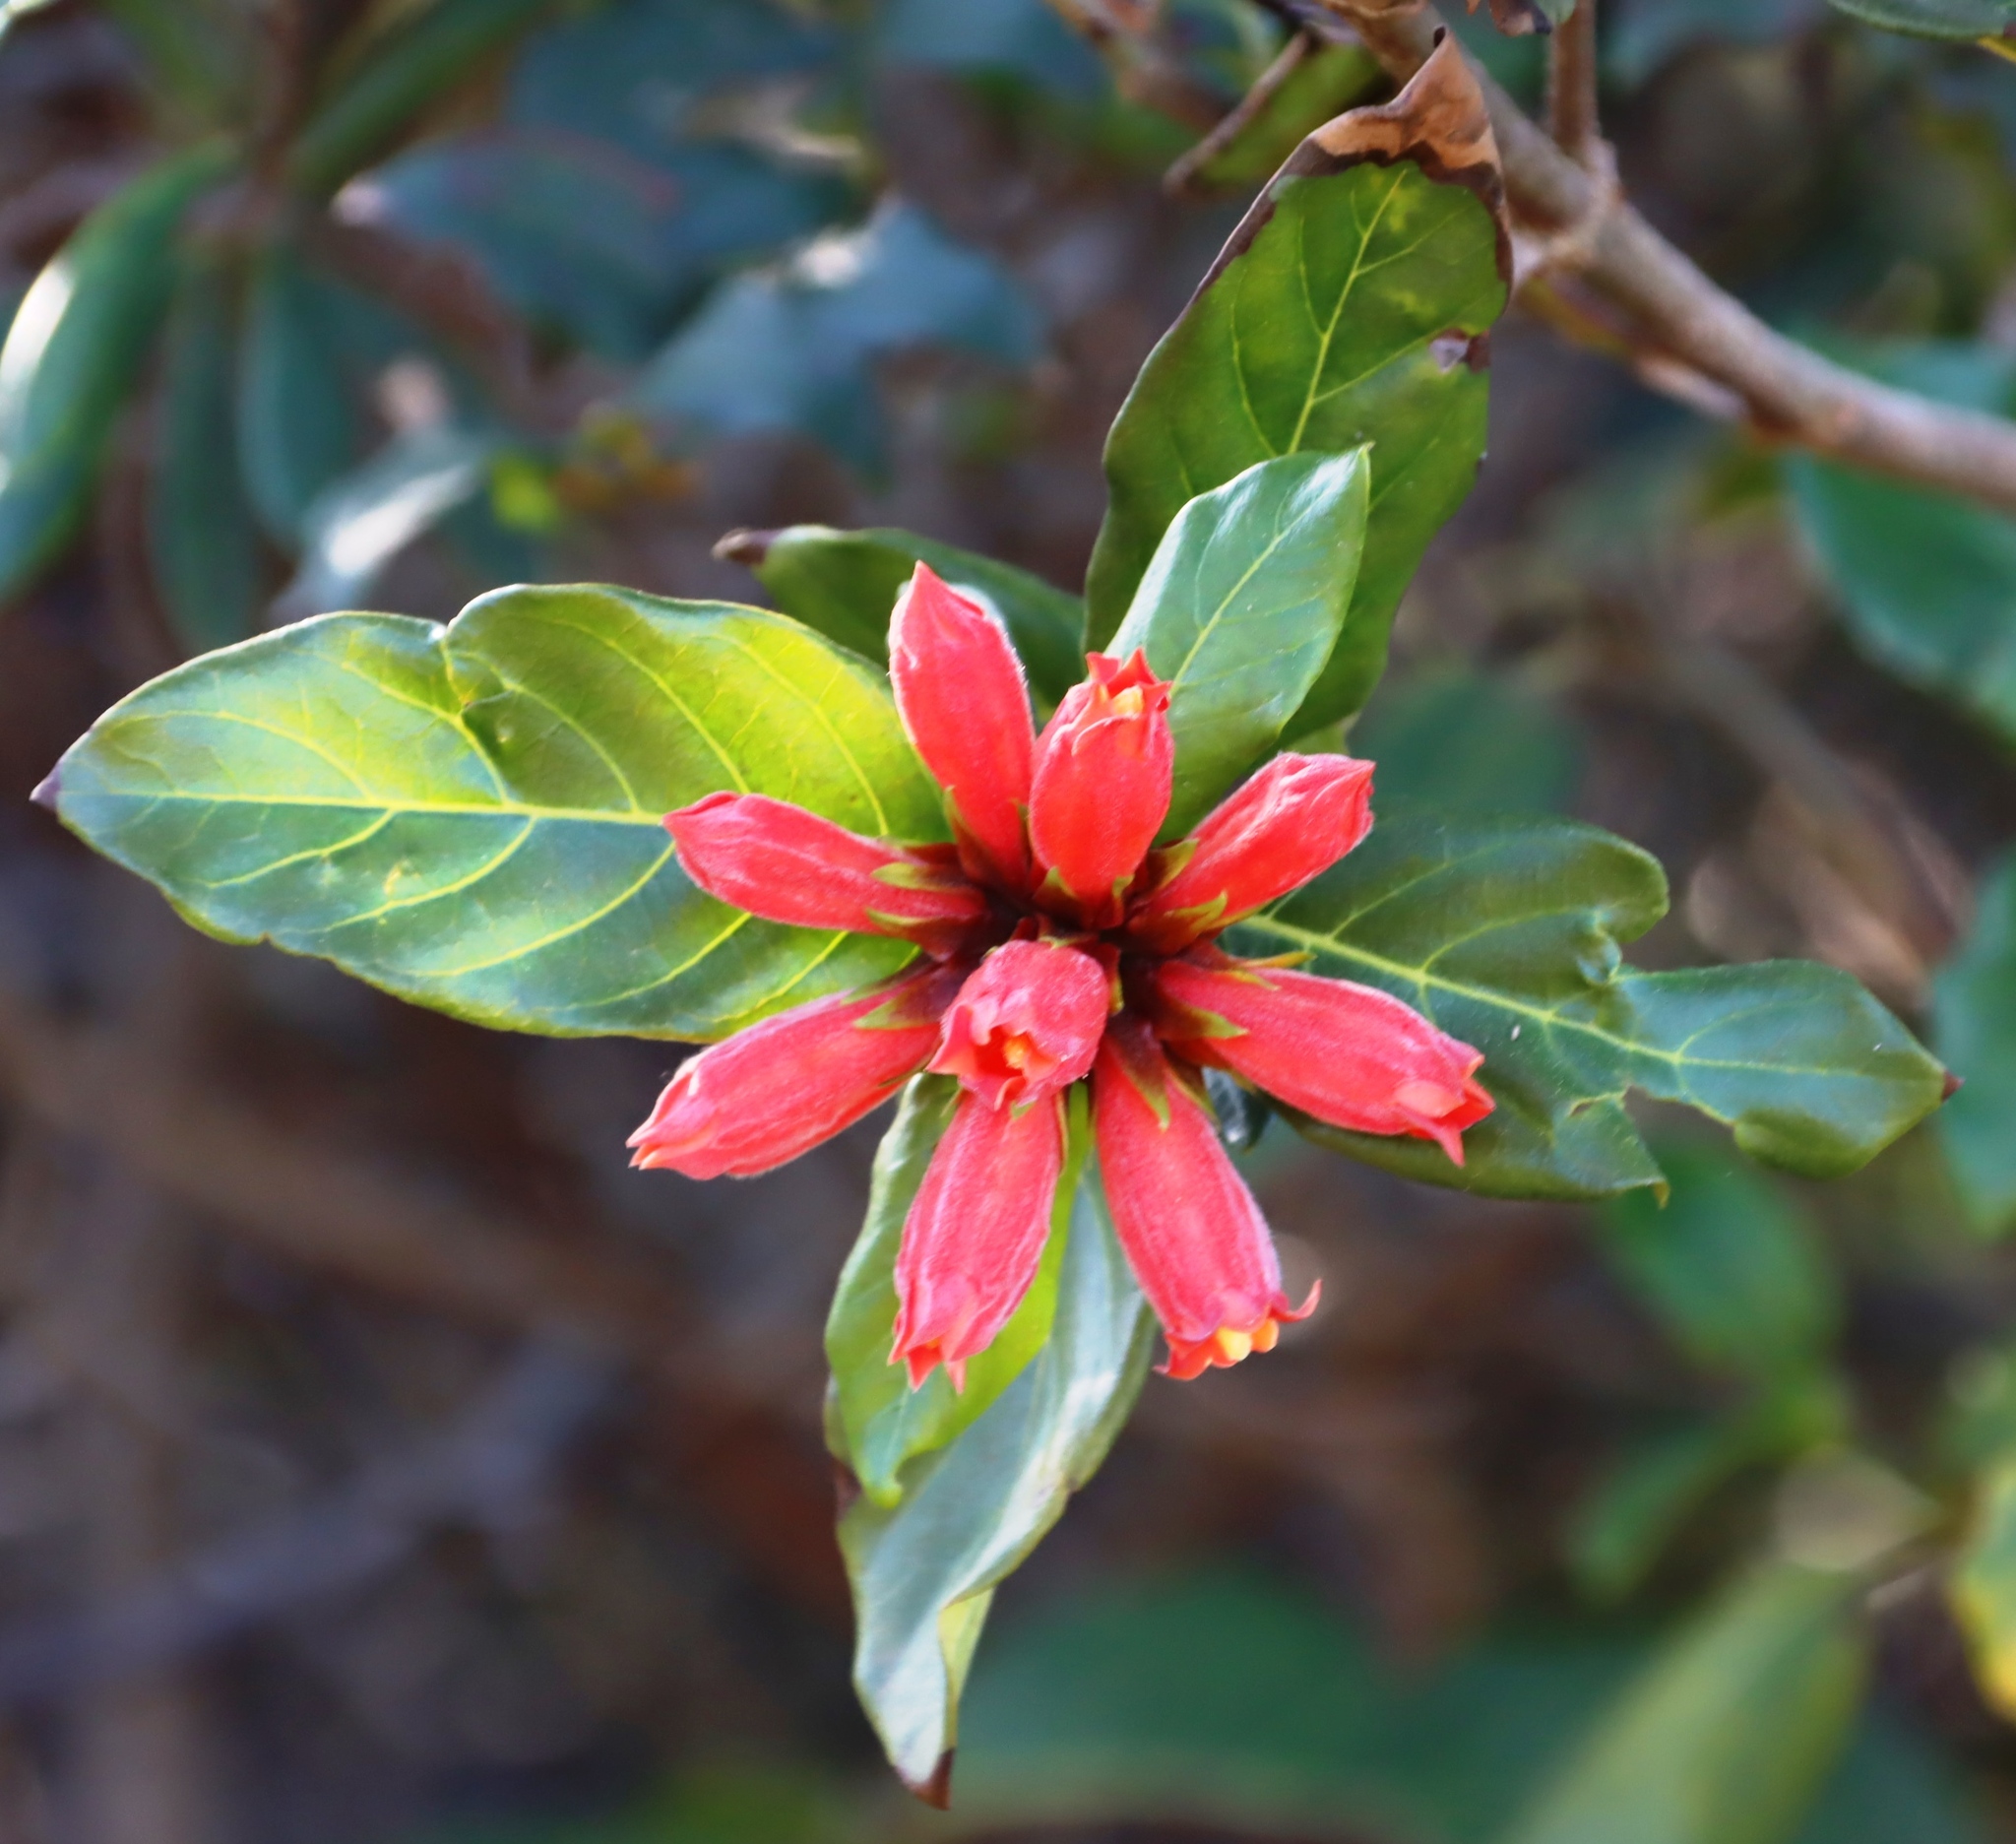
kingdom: Plantae
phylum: Tracheophyta
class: Magnoliopsida
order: Gentianales
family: Rubiaceae
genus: Burchellia
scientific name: Burchellia bubalina
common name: Wild pomegranate
